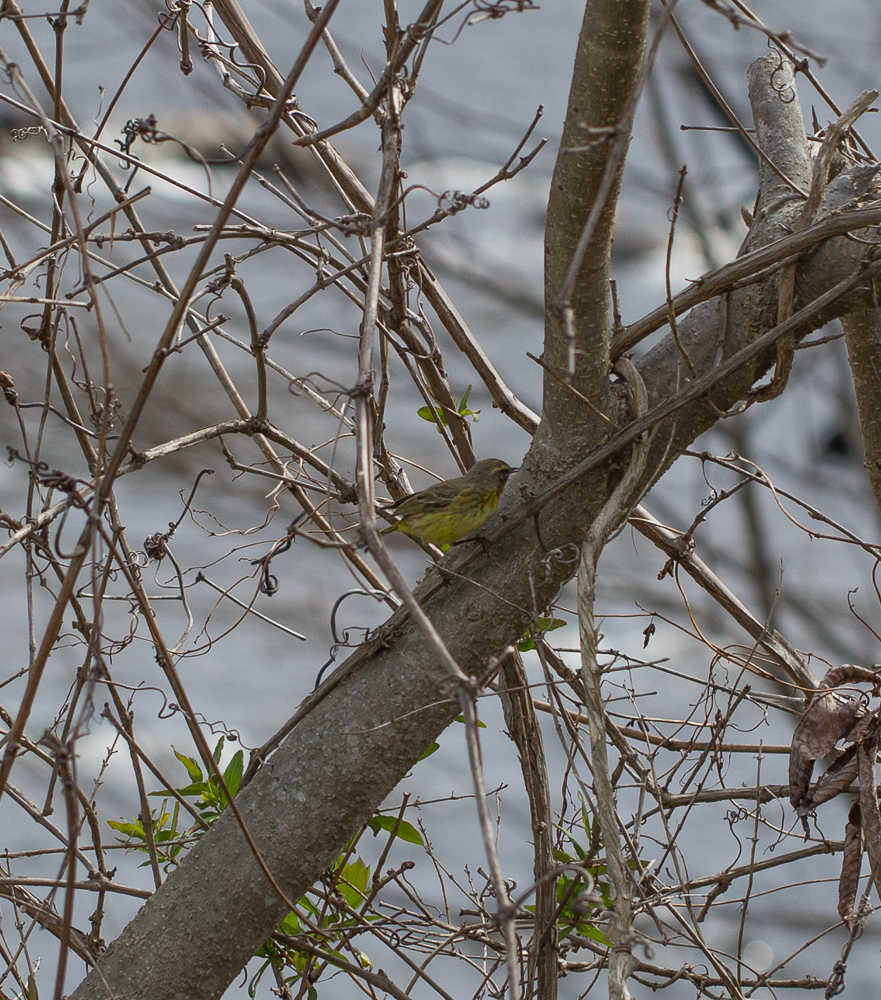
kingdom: Animalia
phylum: Chordata
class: Aves
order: Passeriformes
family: Parulidae
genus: Setophaga
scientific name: Setophaga palmarum
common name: Palm warbler
